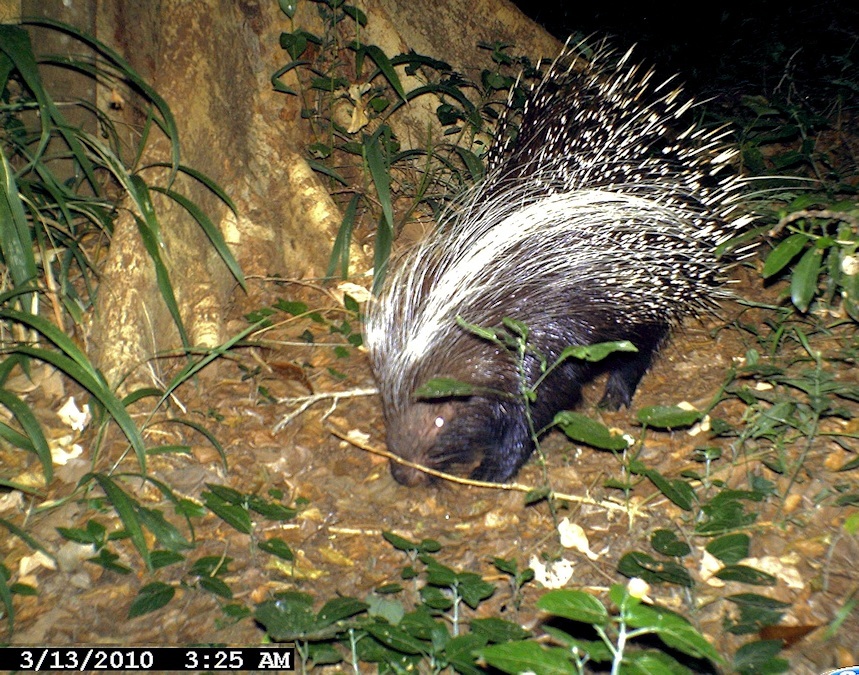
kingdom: Animalia
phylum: Chordata
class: Mammalia
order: Rodentia
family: Hystricidae
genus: Hystrix
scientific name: Hystrix africaeaustralis
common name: Cape porcupine
